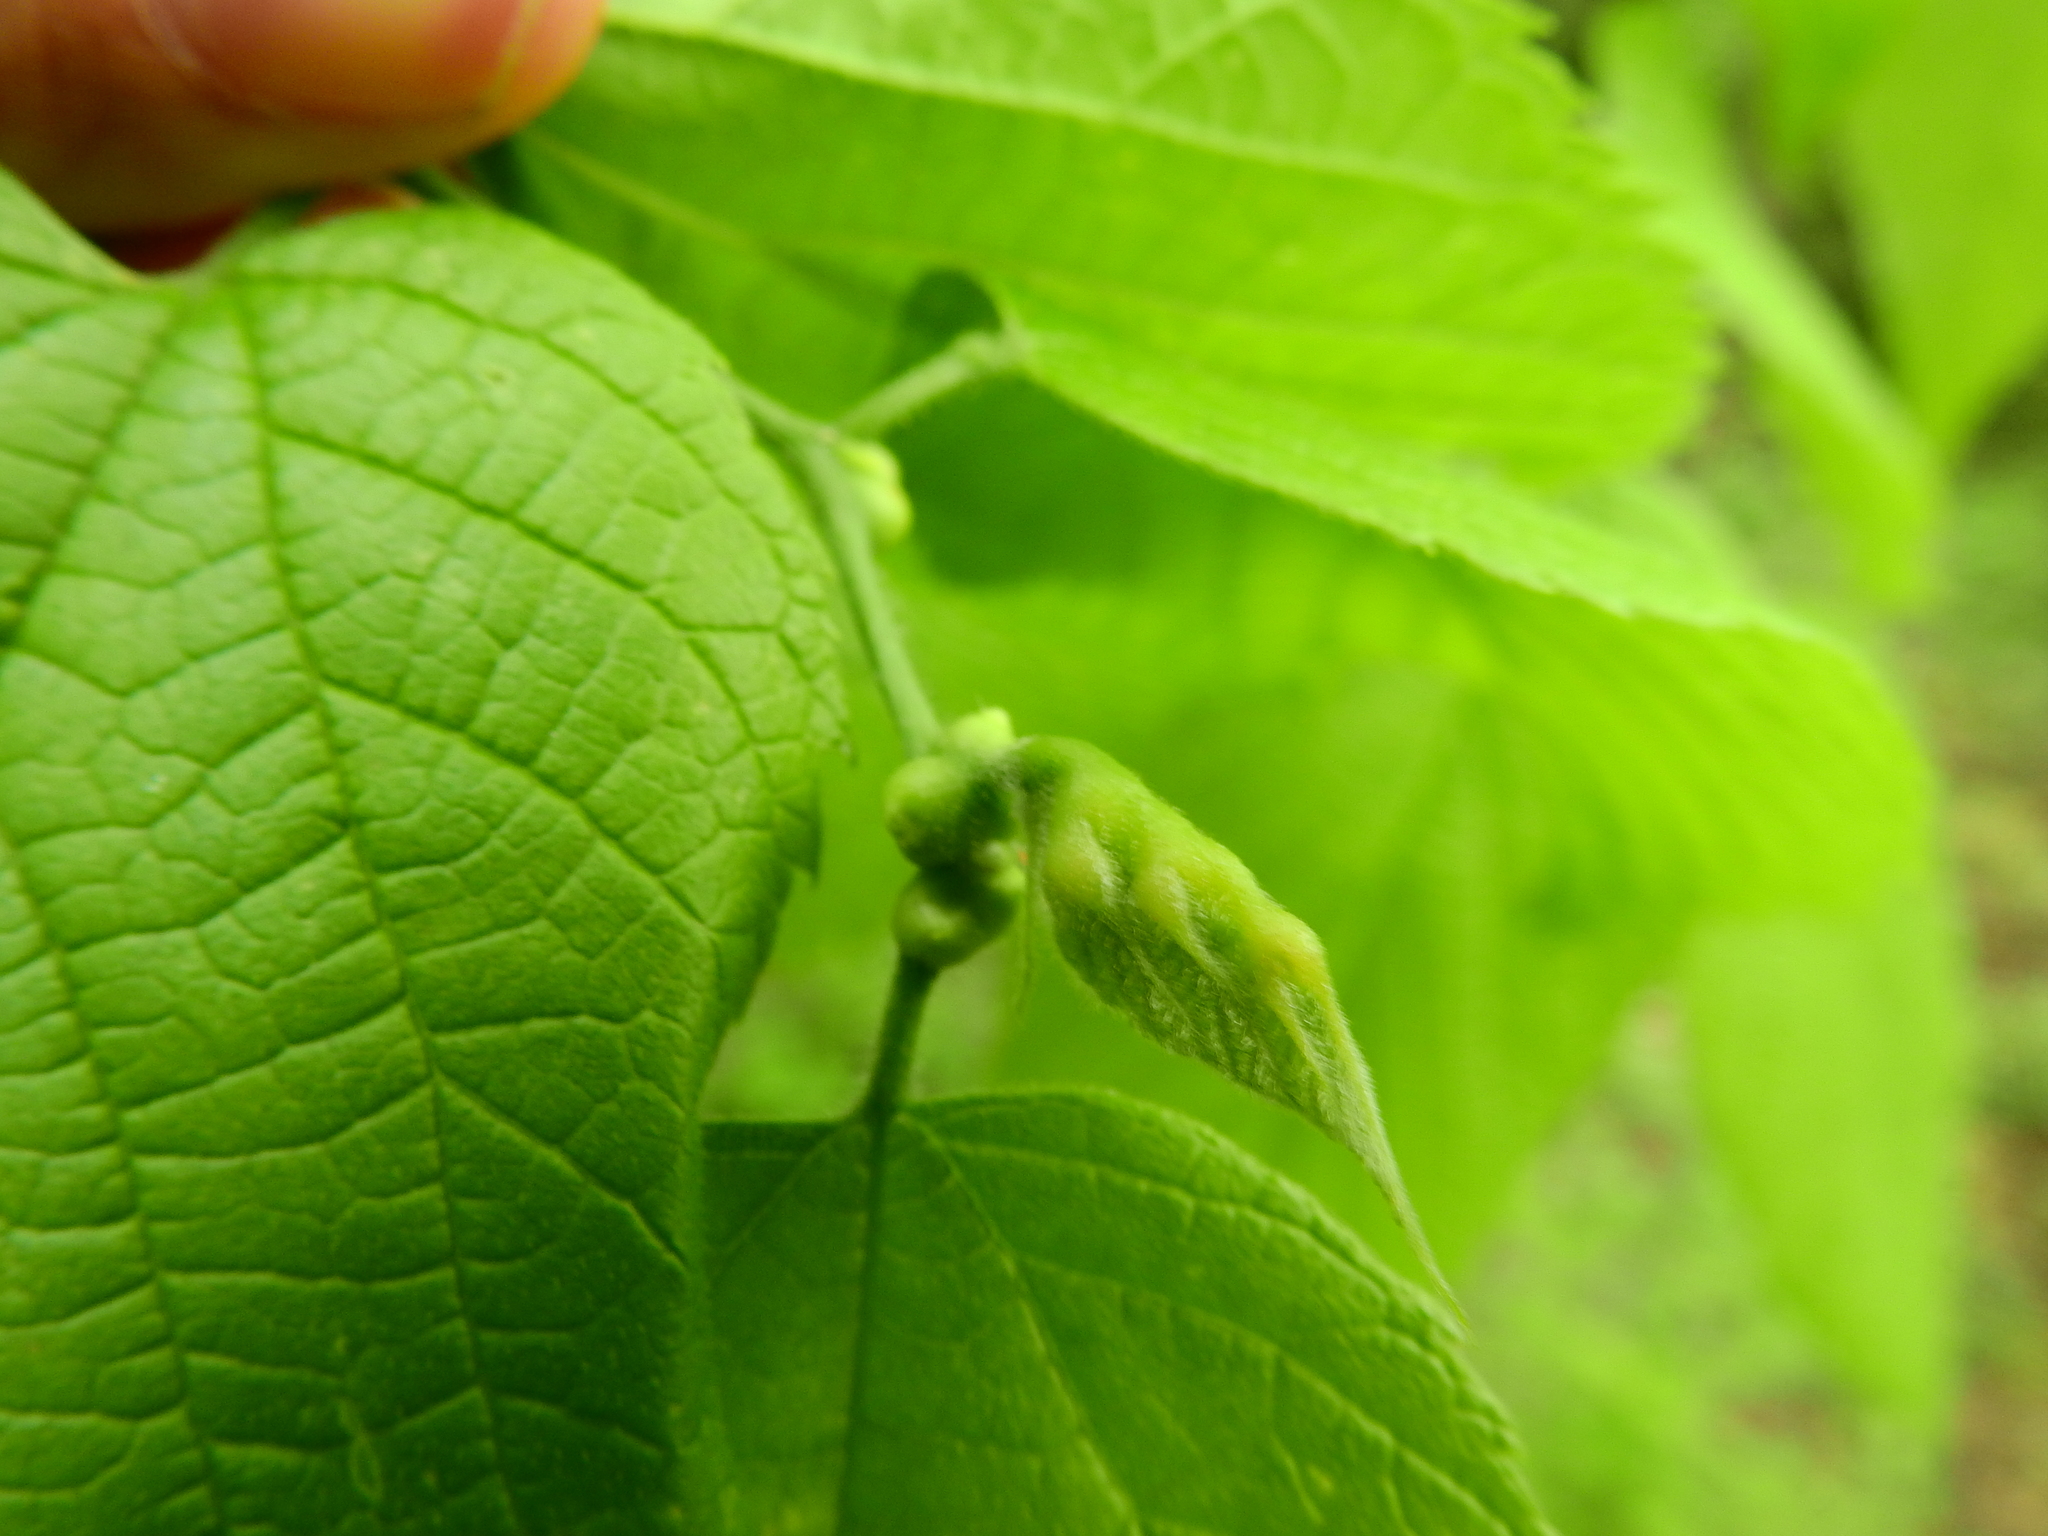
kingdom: Animalia
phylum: Arthropoda
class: Insecta
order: Diptera
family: Cecidomyiidae
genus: Celticecis
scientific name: Celticecis expulsa
